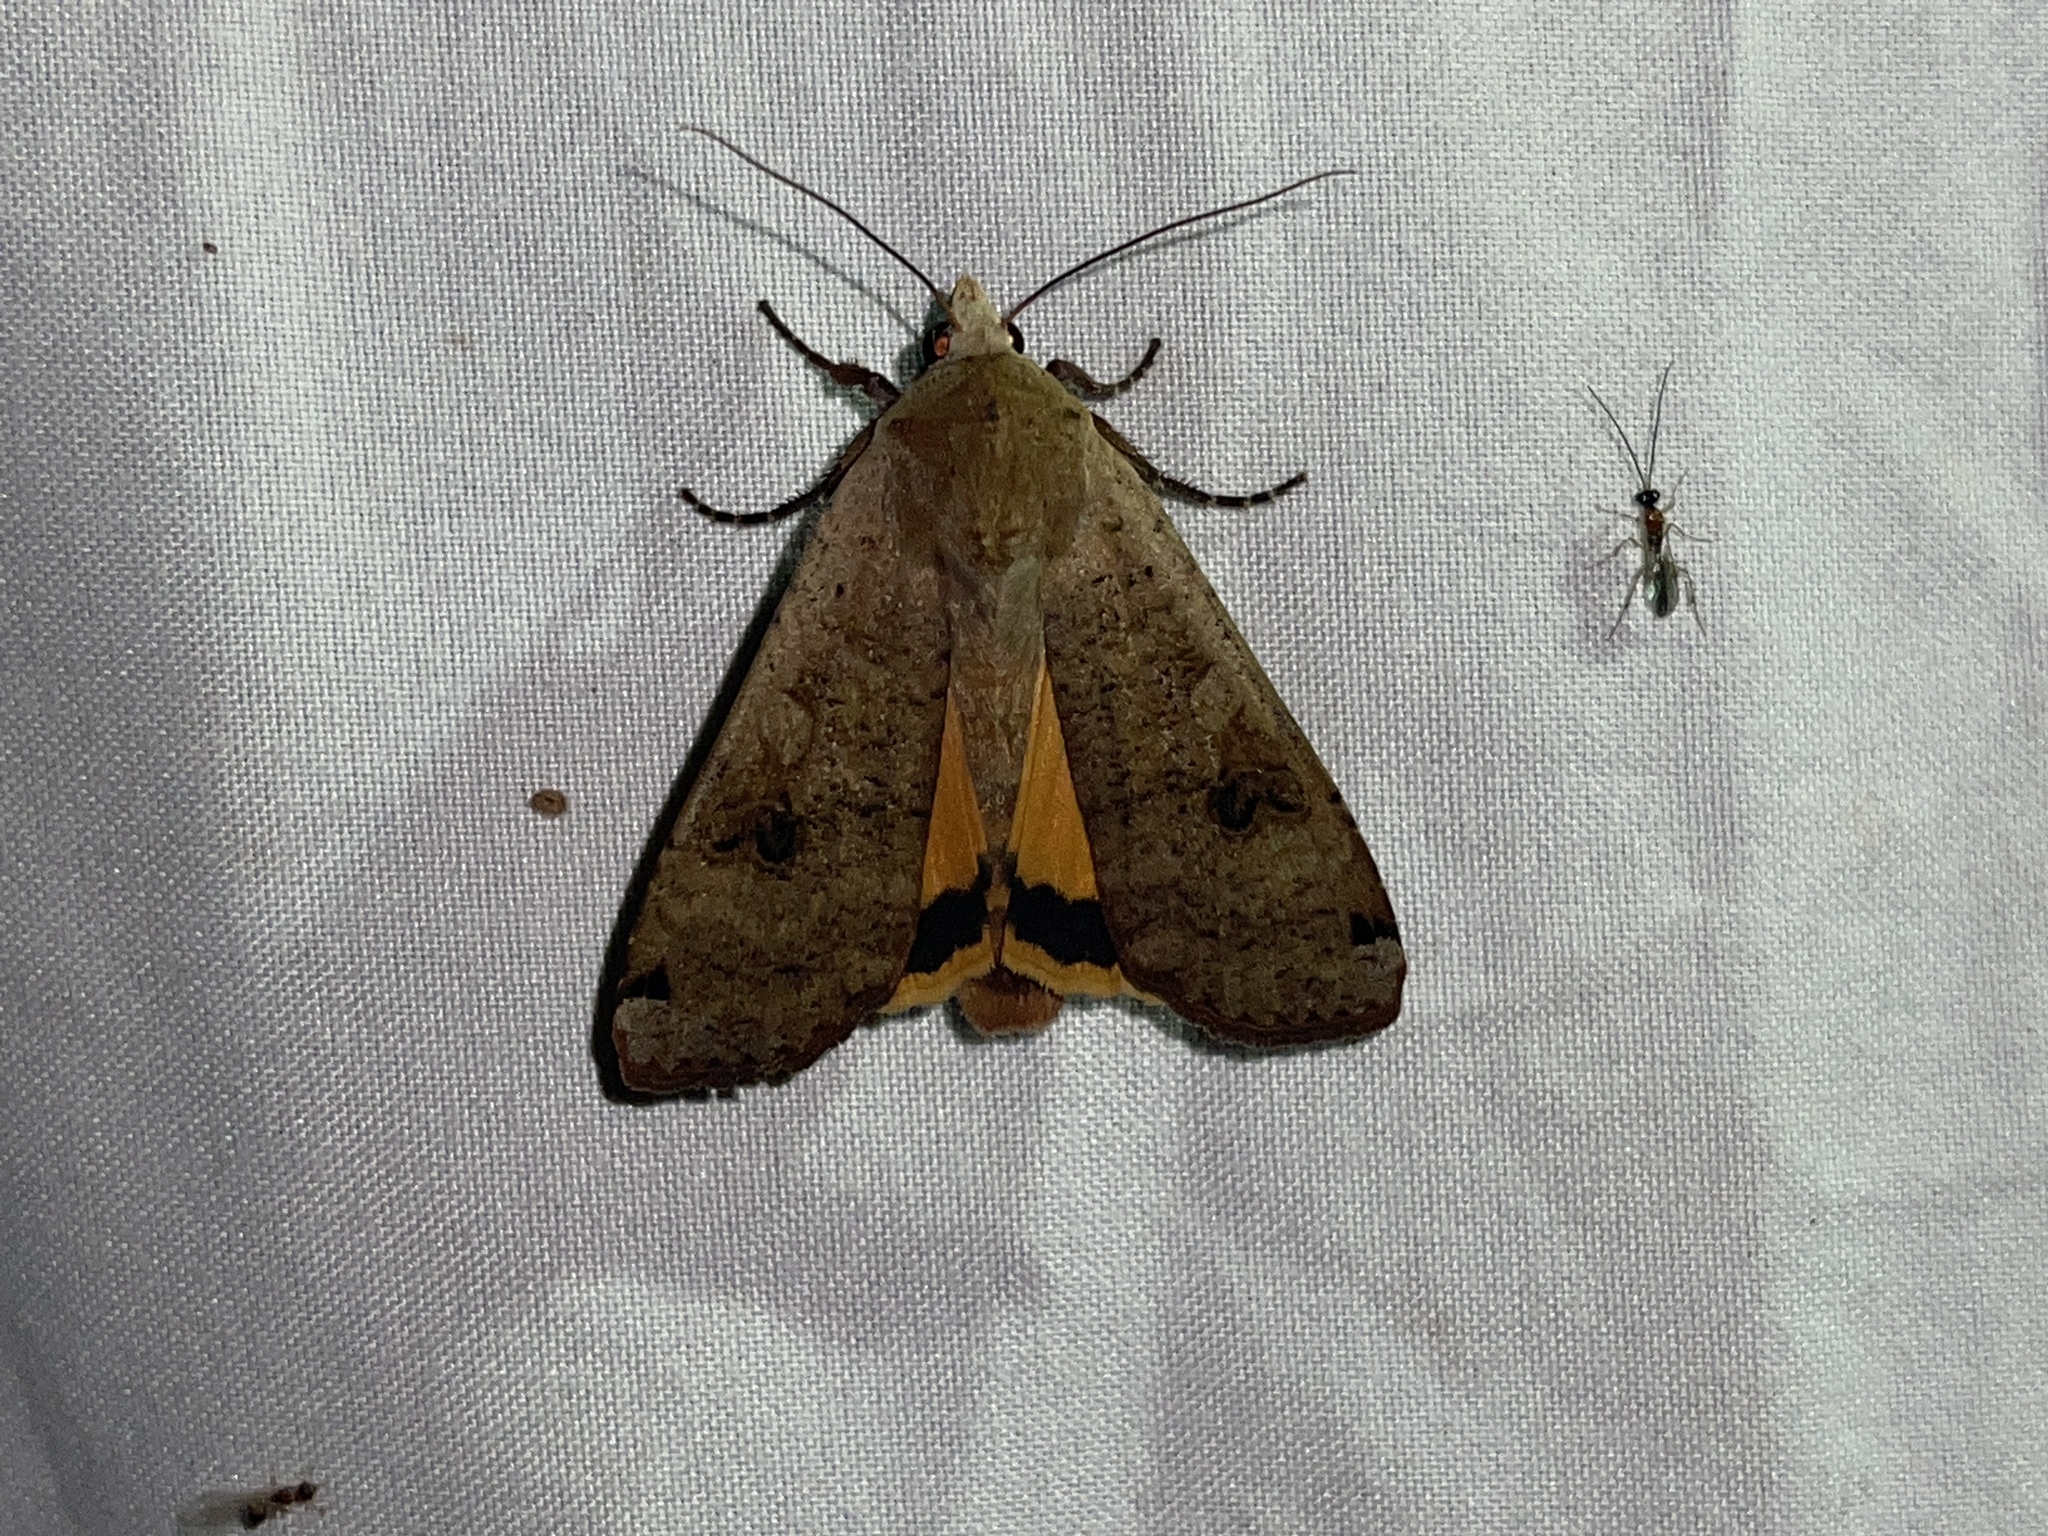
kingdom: Animalia
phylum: Arthropoda
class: Insecta
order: Lepidoptera
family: Noctuidae
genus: Noctua
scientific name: Noctua pronuba
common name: Large yellow underwing
